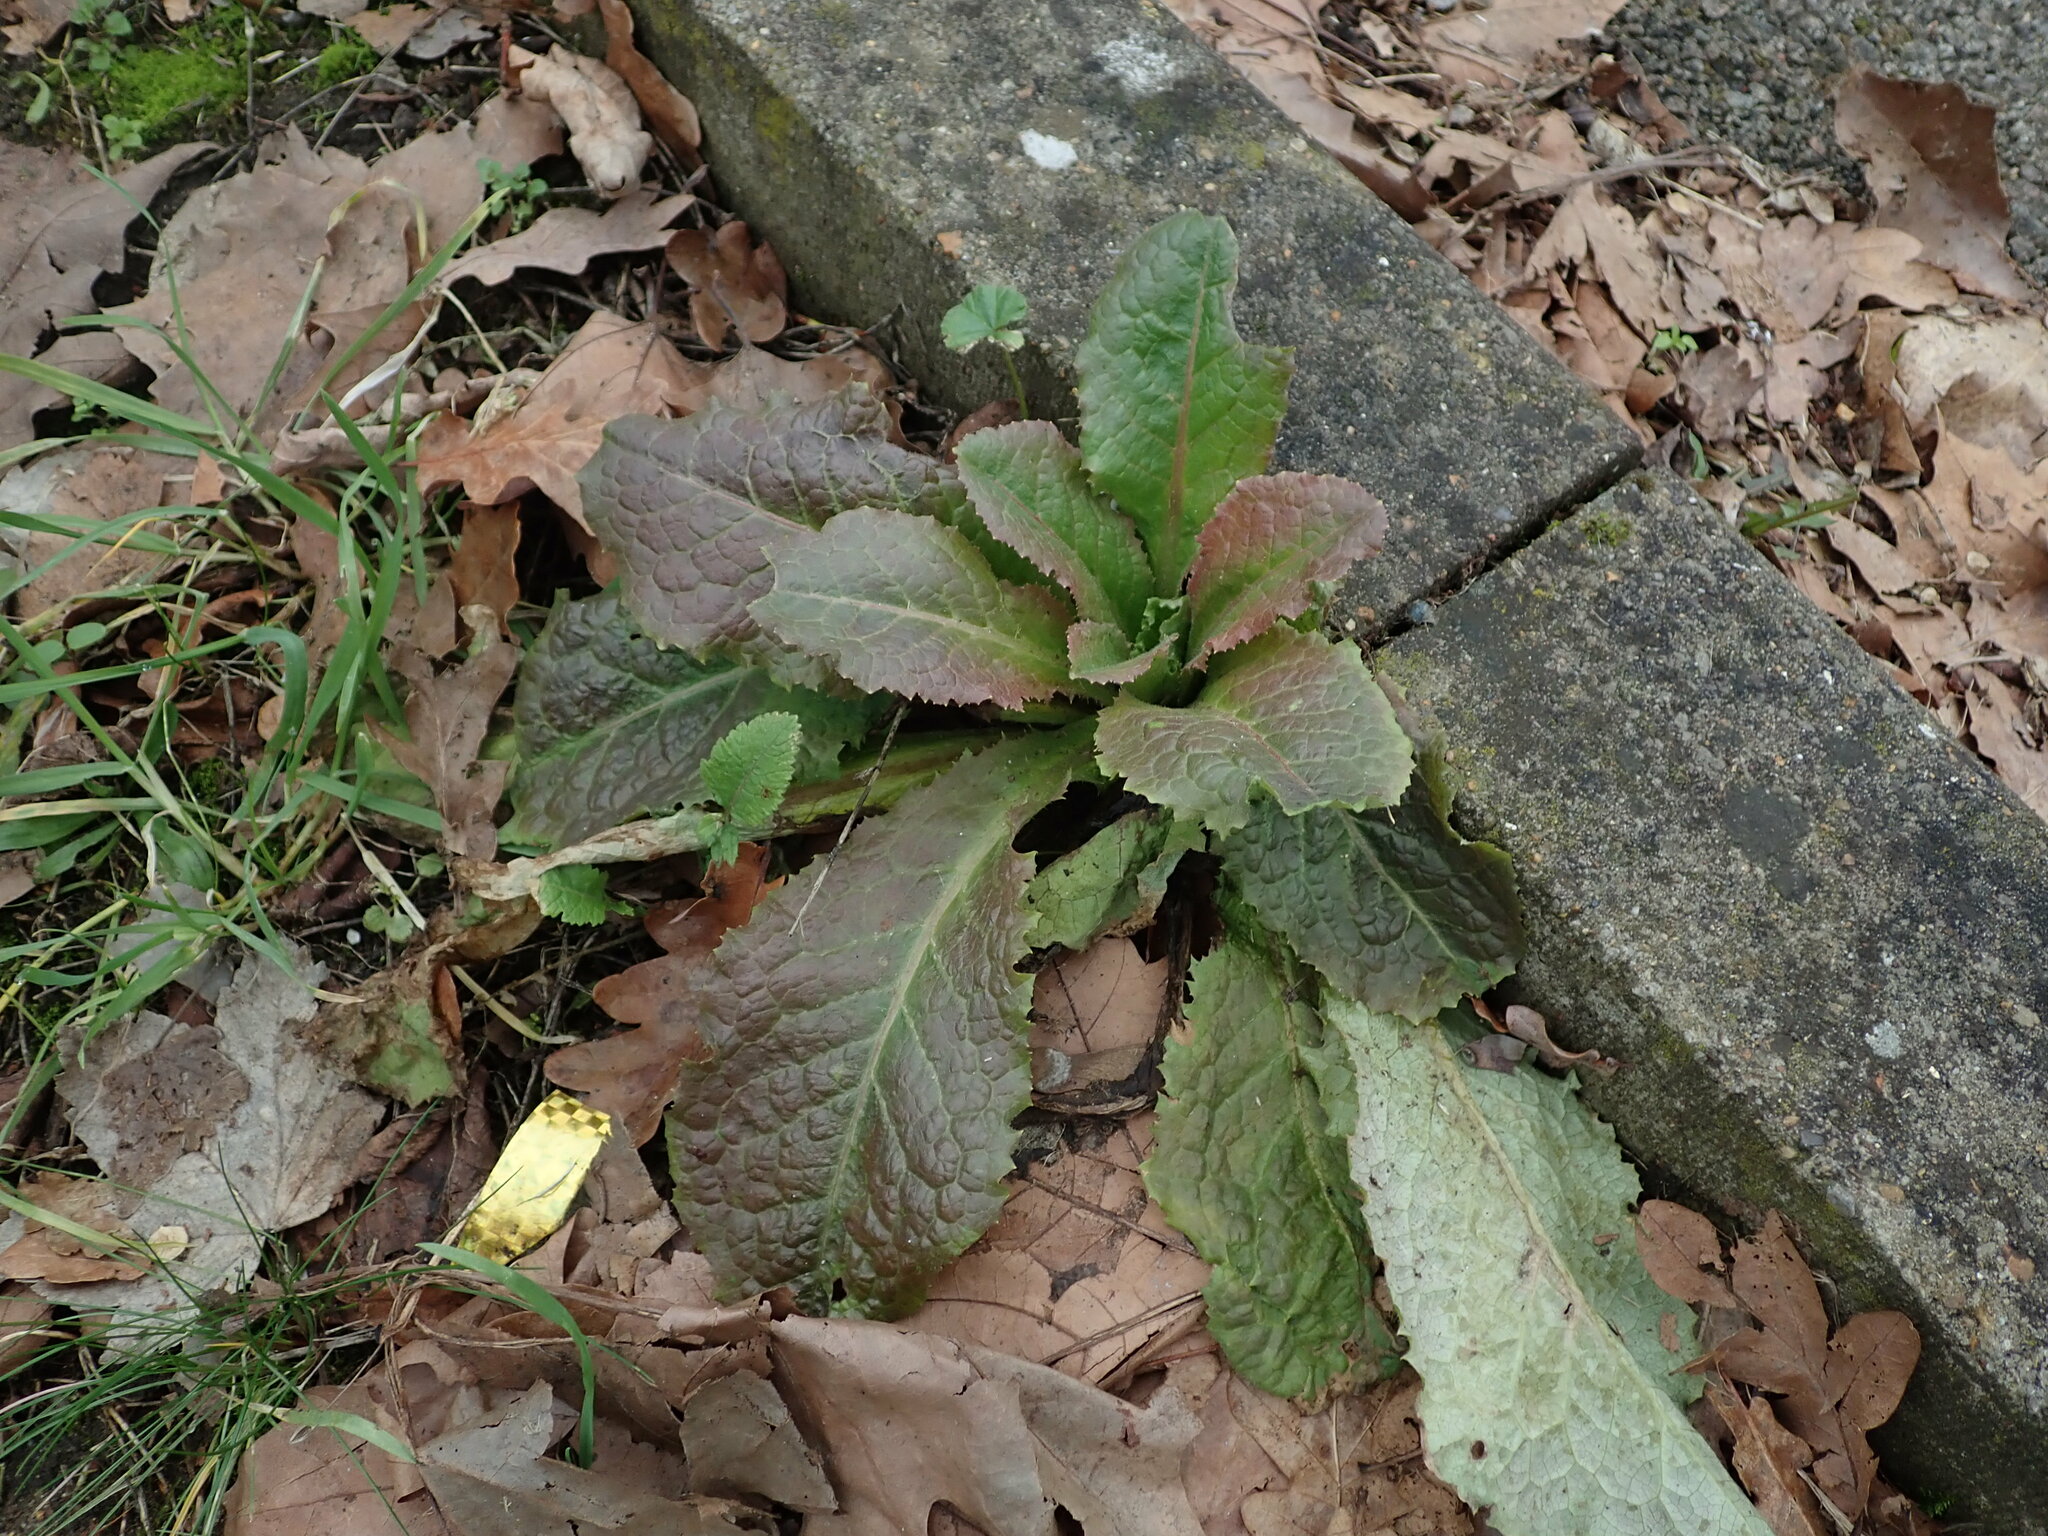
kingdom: Plantae
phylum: Tracheophyta
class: Magnoliopsida
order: Asterales
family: Asteraceae
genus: Lactuca
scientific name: Lactuca virosa
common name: Great lettuce
